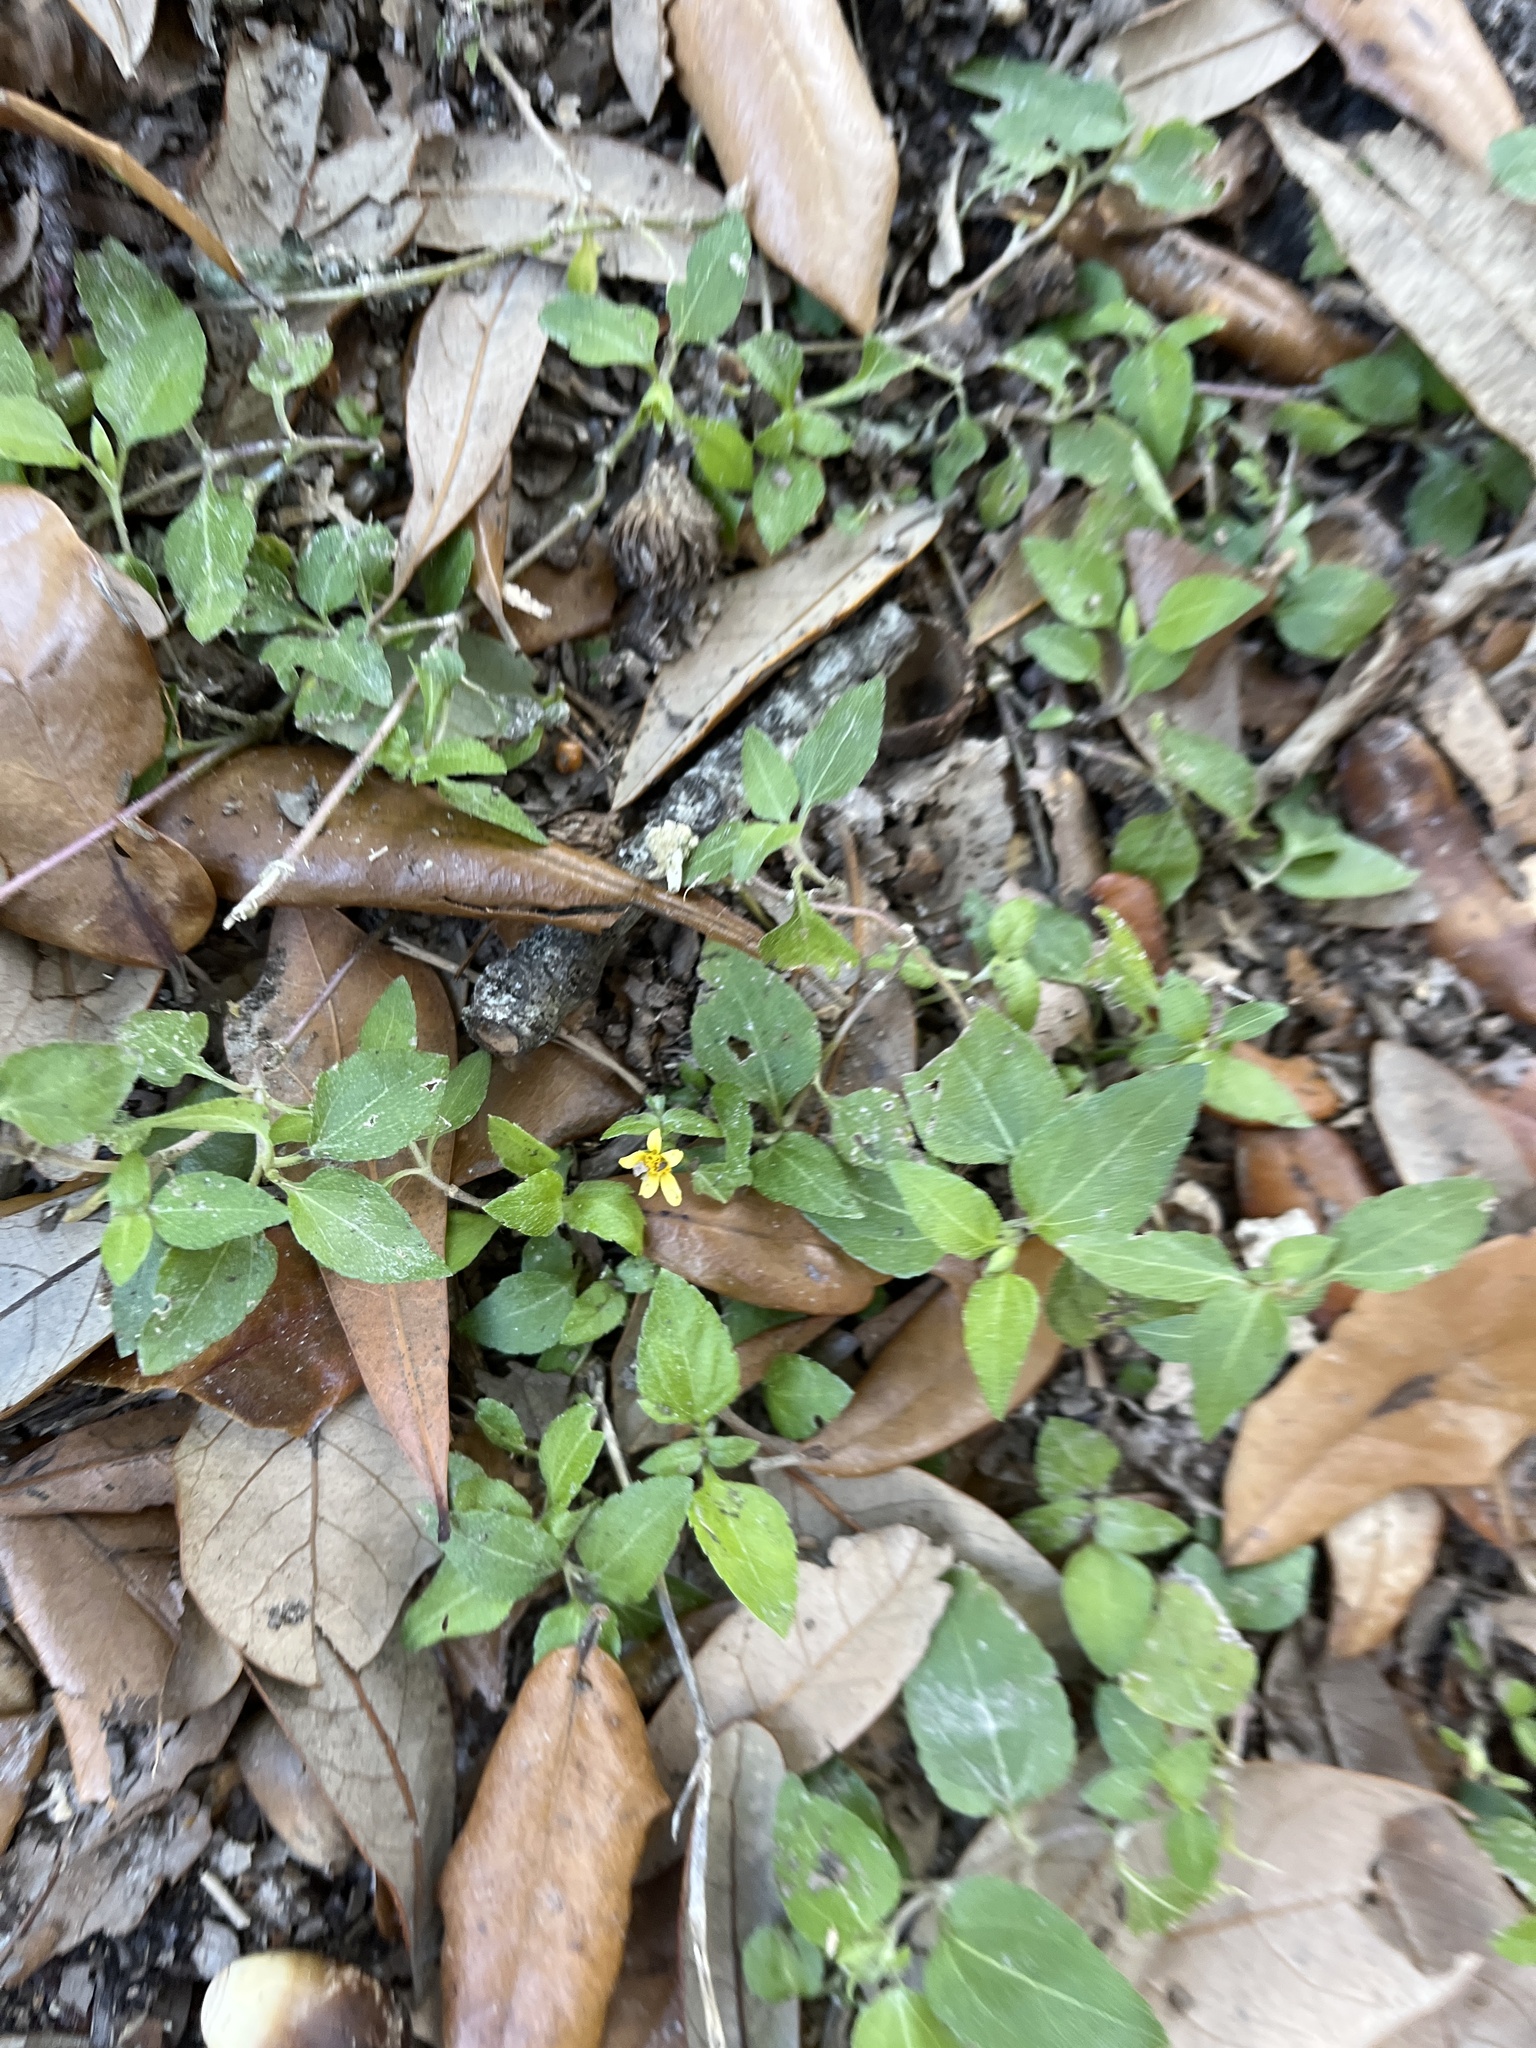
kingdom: Plantae
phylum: Tracheophyta
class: Magnoliopsida
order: Asterales
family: Asteraceae
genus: Calyptocarpus
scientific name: Calyptocarpus vialis
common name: Straggler daisy
